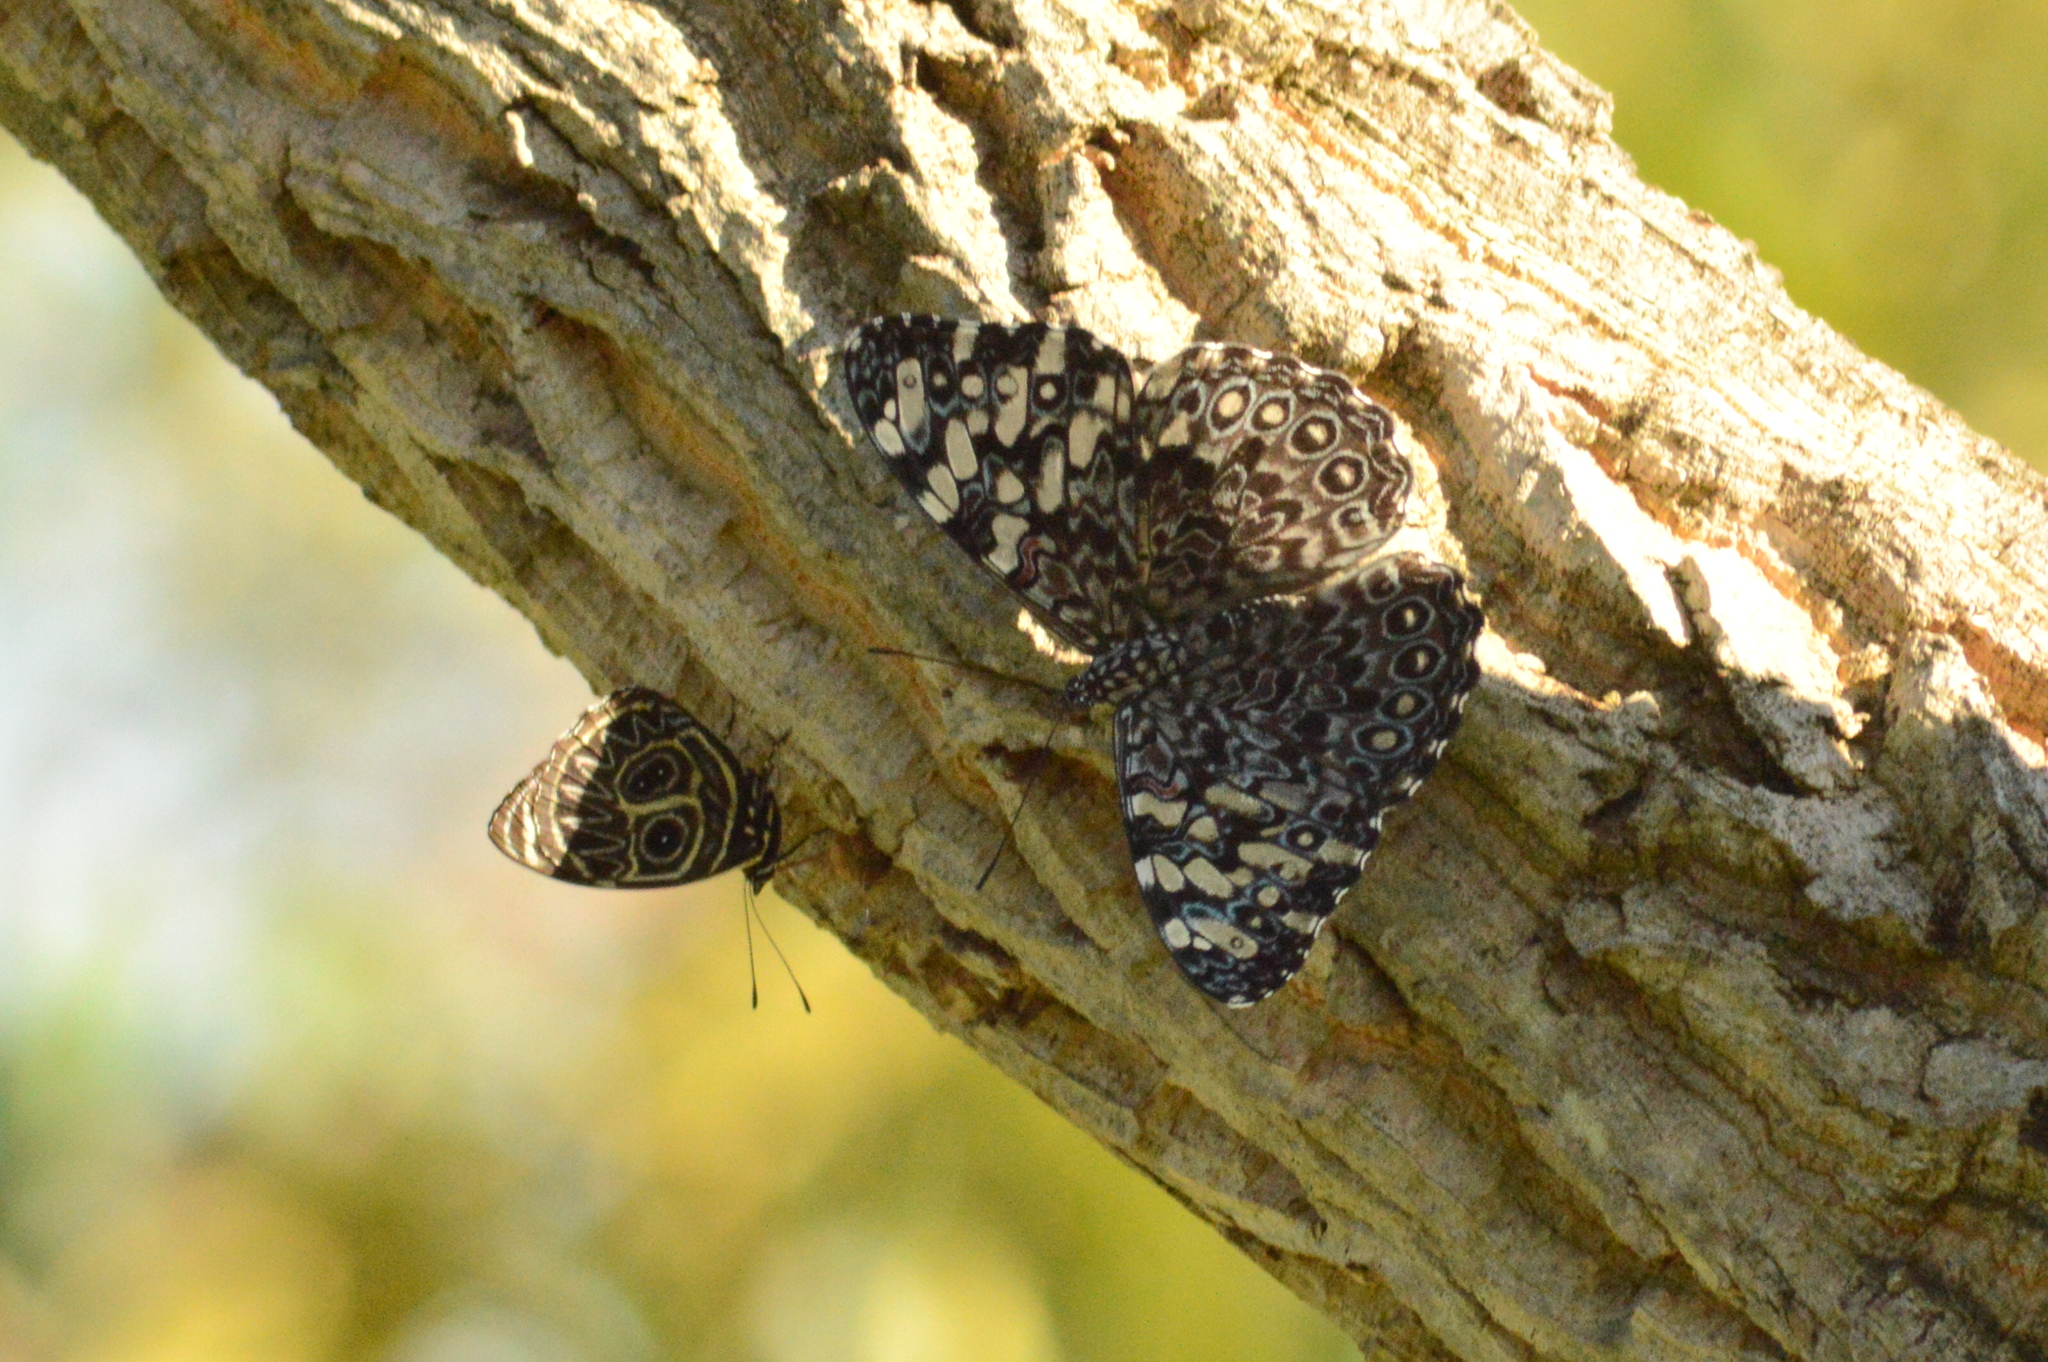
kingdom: Animalia
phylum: Arthropoda
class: Insecta
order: Lepidoptera
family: Nymphalidae
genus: Hamadryas
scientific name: Hamadryas feronia
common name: Variable cracker
